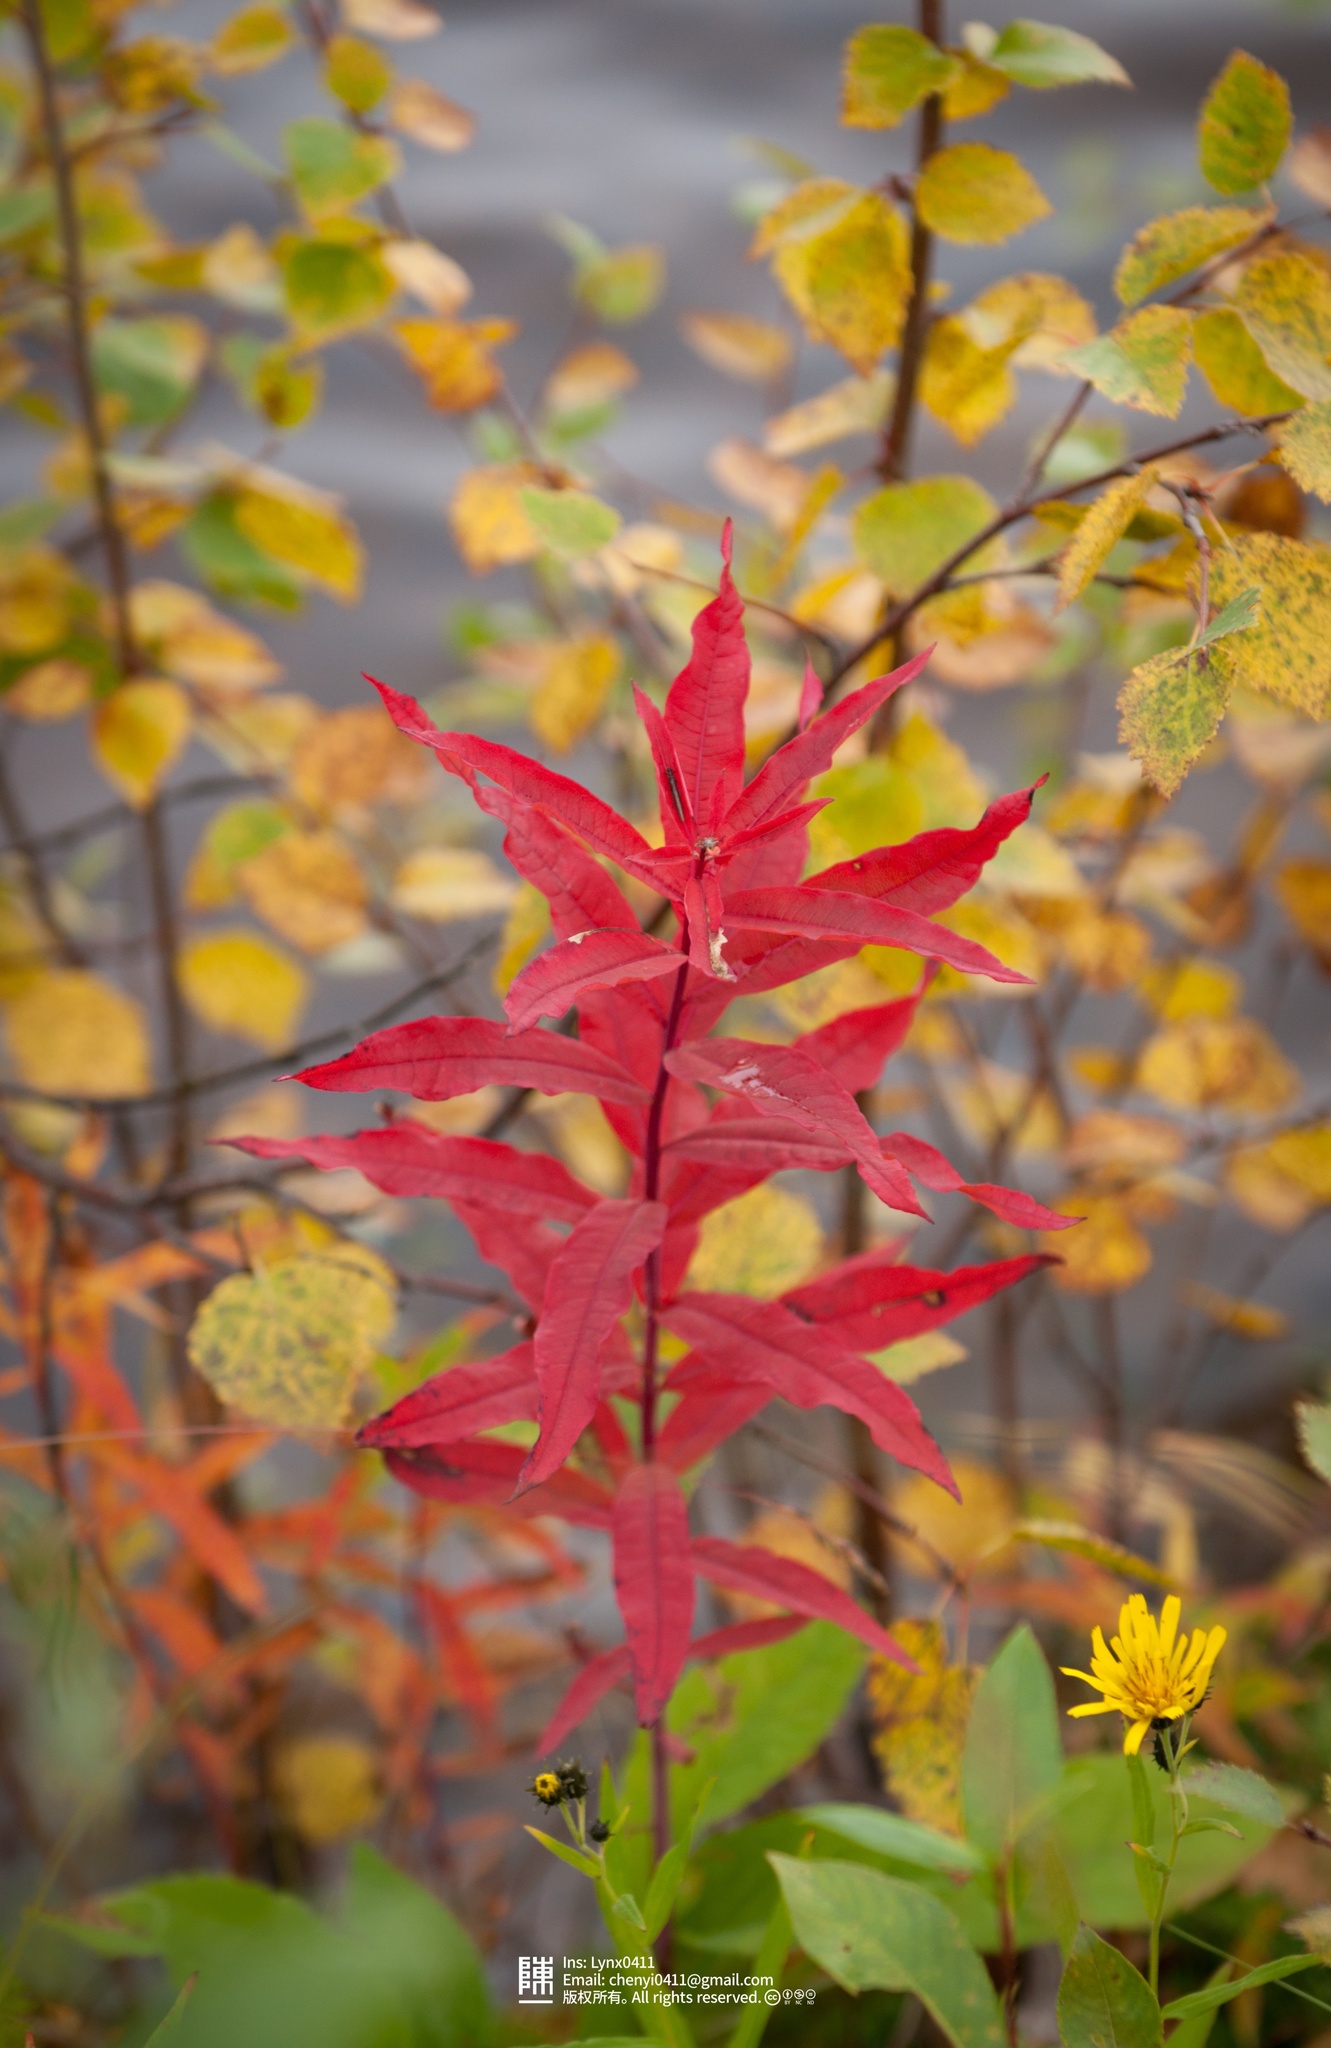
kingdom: Plantae
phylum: Tracheophyta
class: Magnoliopsida
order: Myrtales
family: Onagraceae
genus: Chamaenerion
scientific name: Chamaenerion angustifolium
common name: Fireweed
